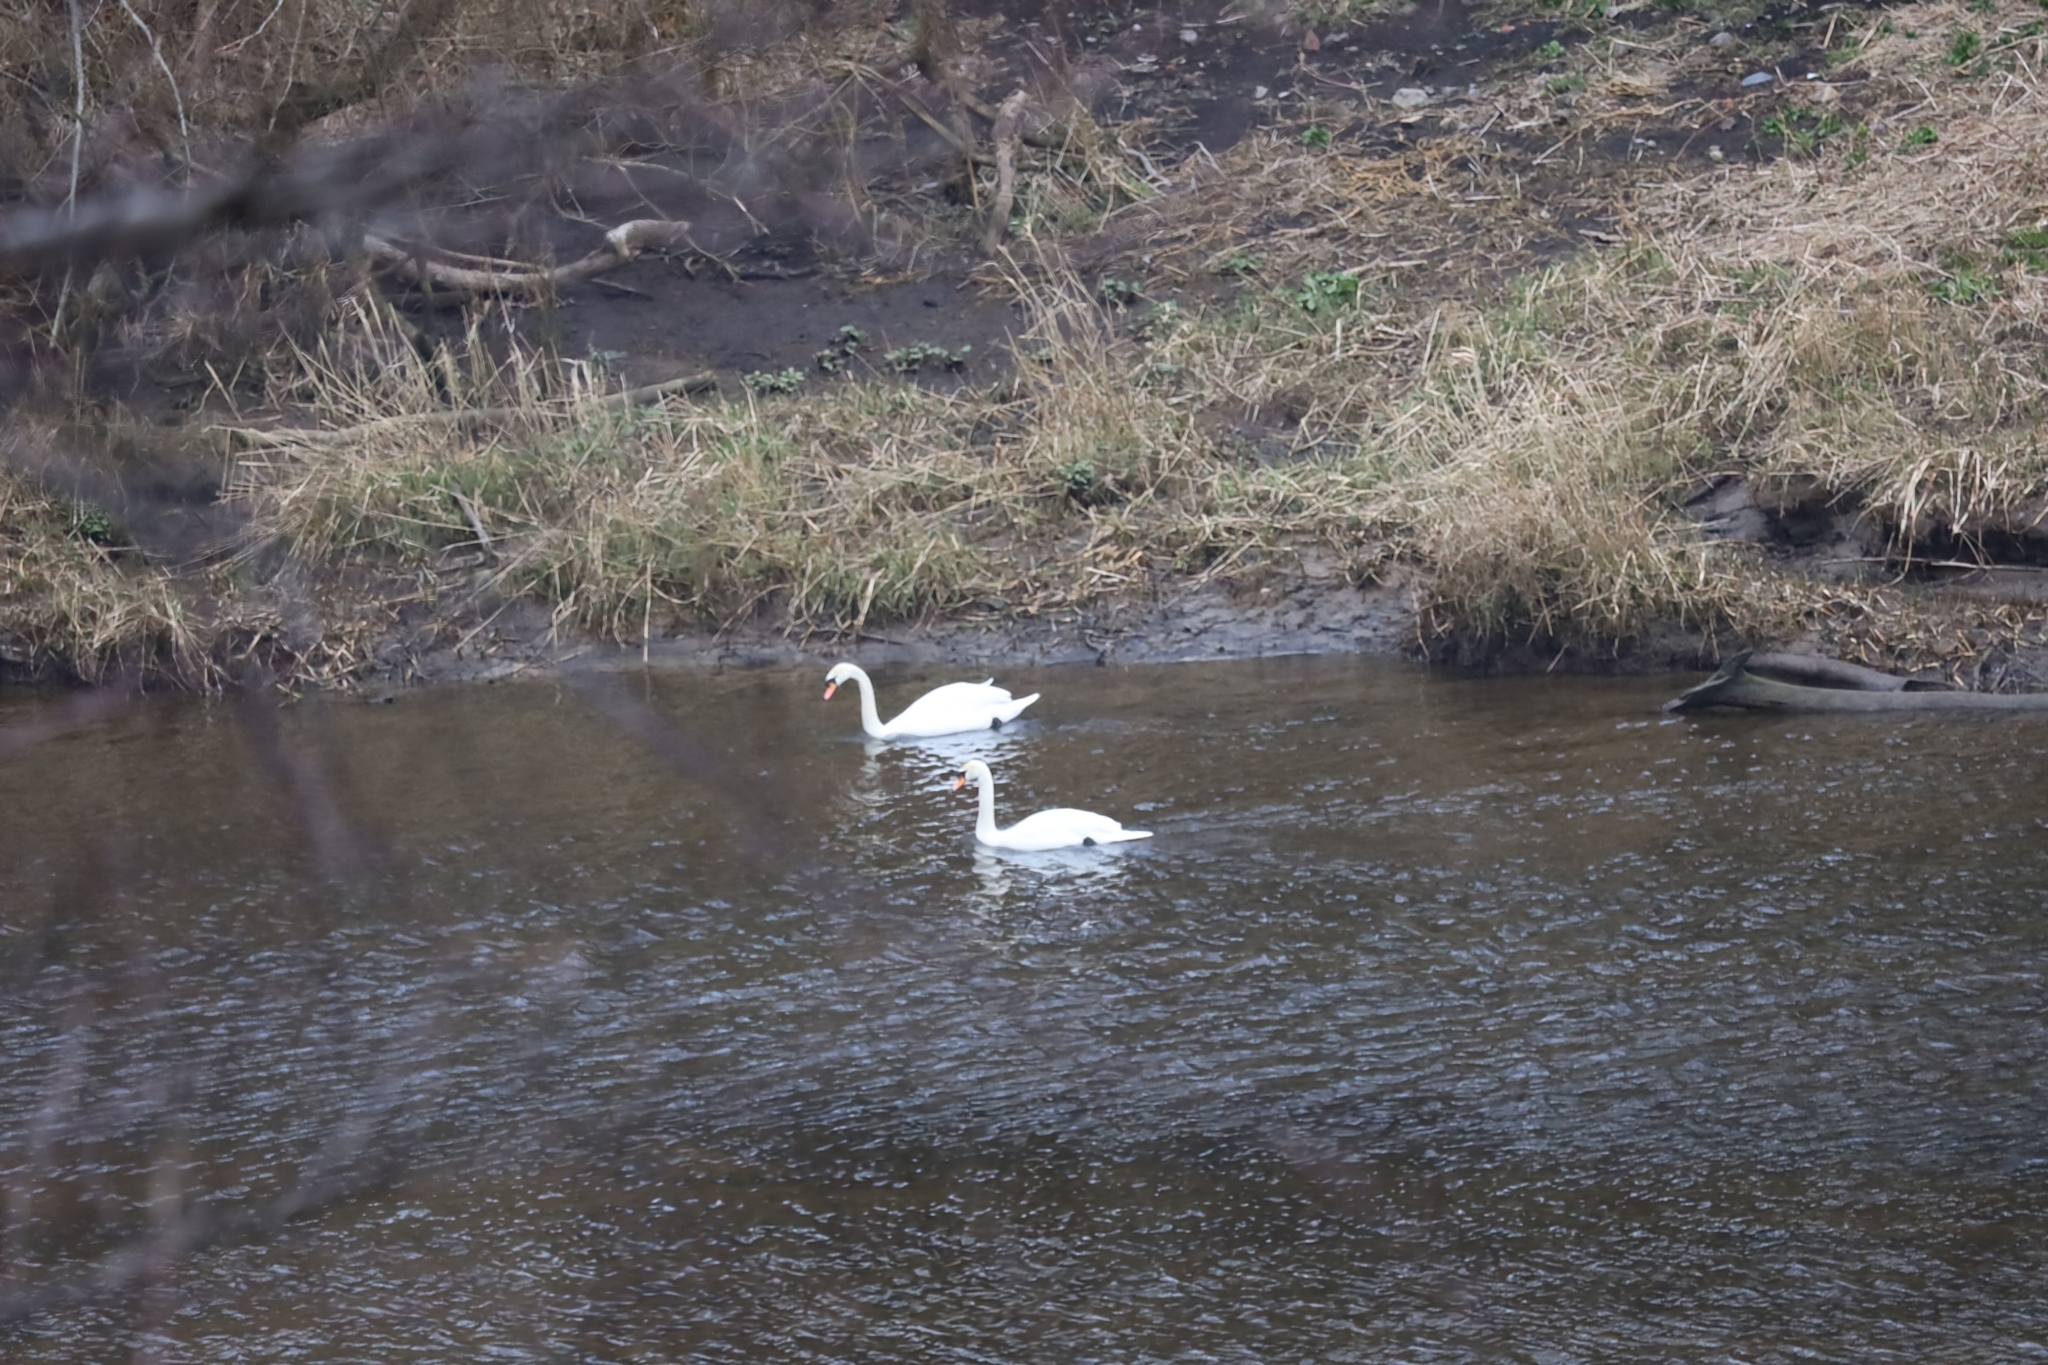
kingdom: Animalia
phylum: Chordata
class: Aves
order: Anseriformes
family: Anatidae
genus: Cygnus
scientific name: Cygnus olor
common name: Mute swan
